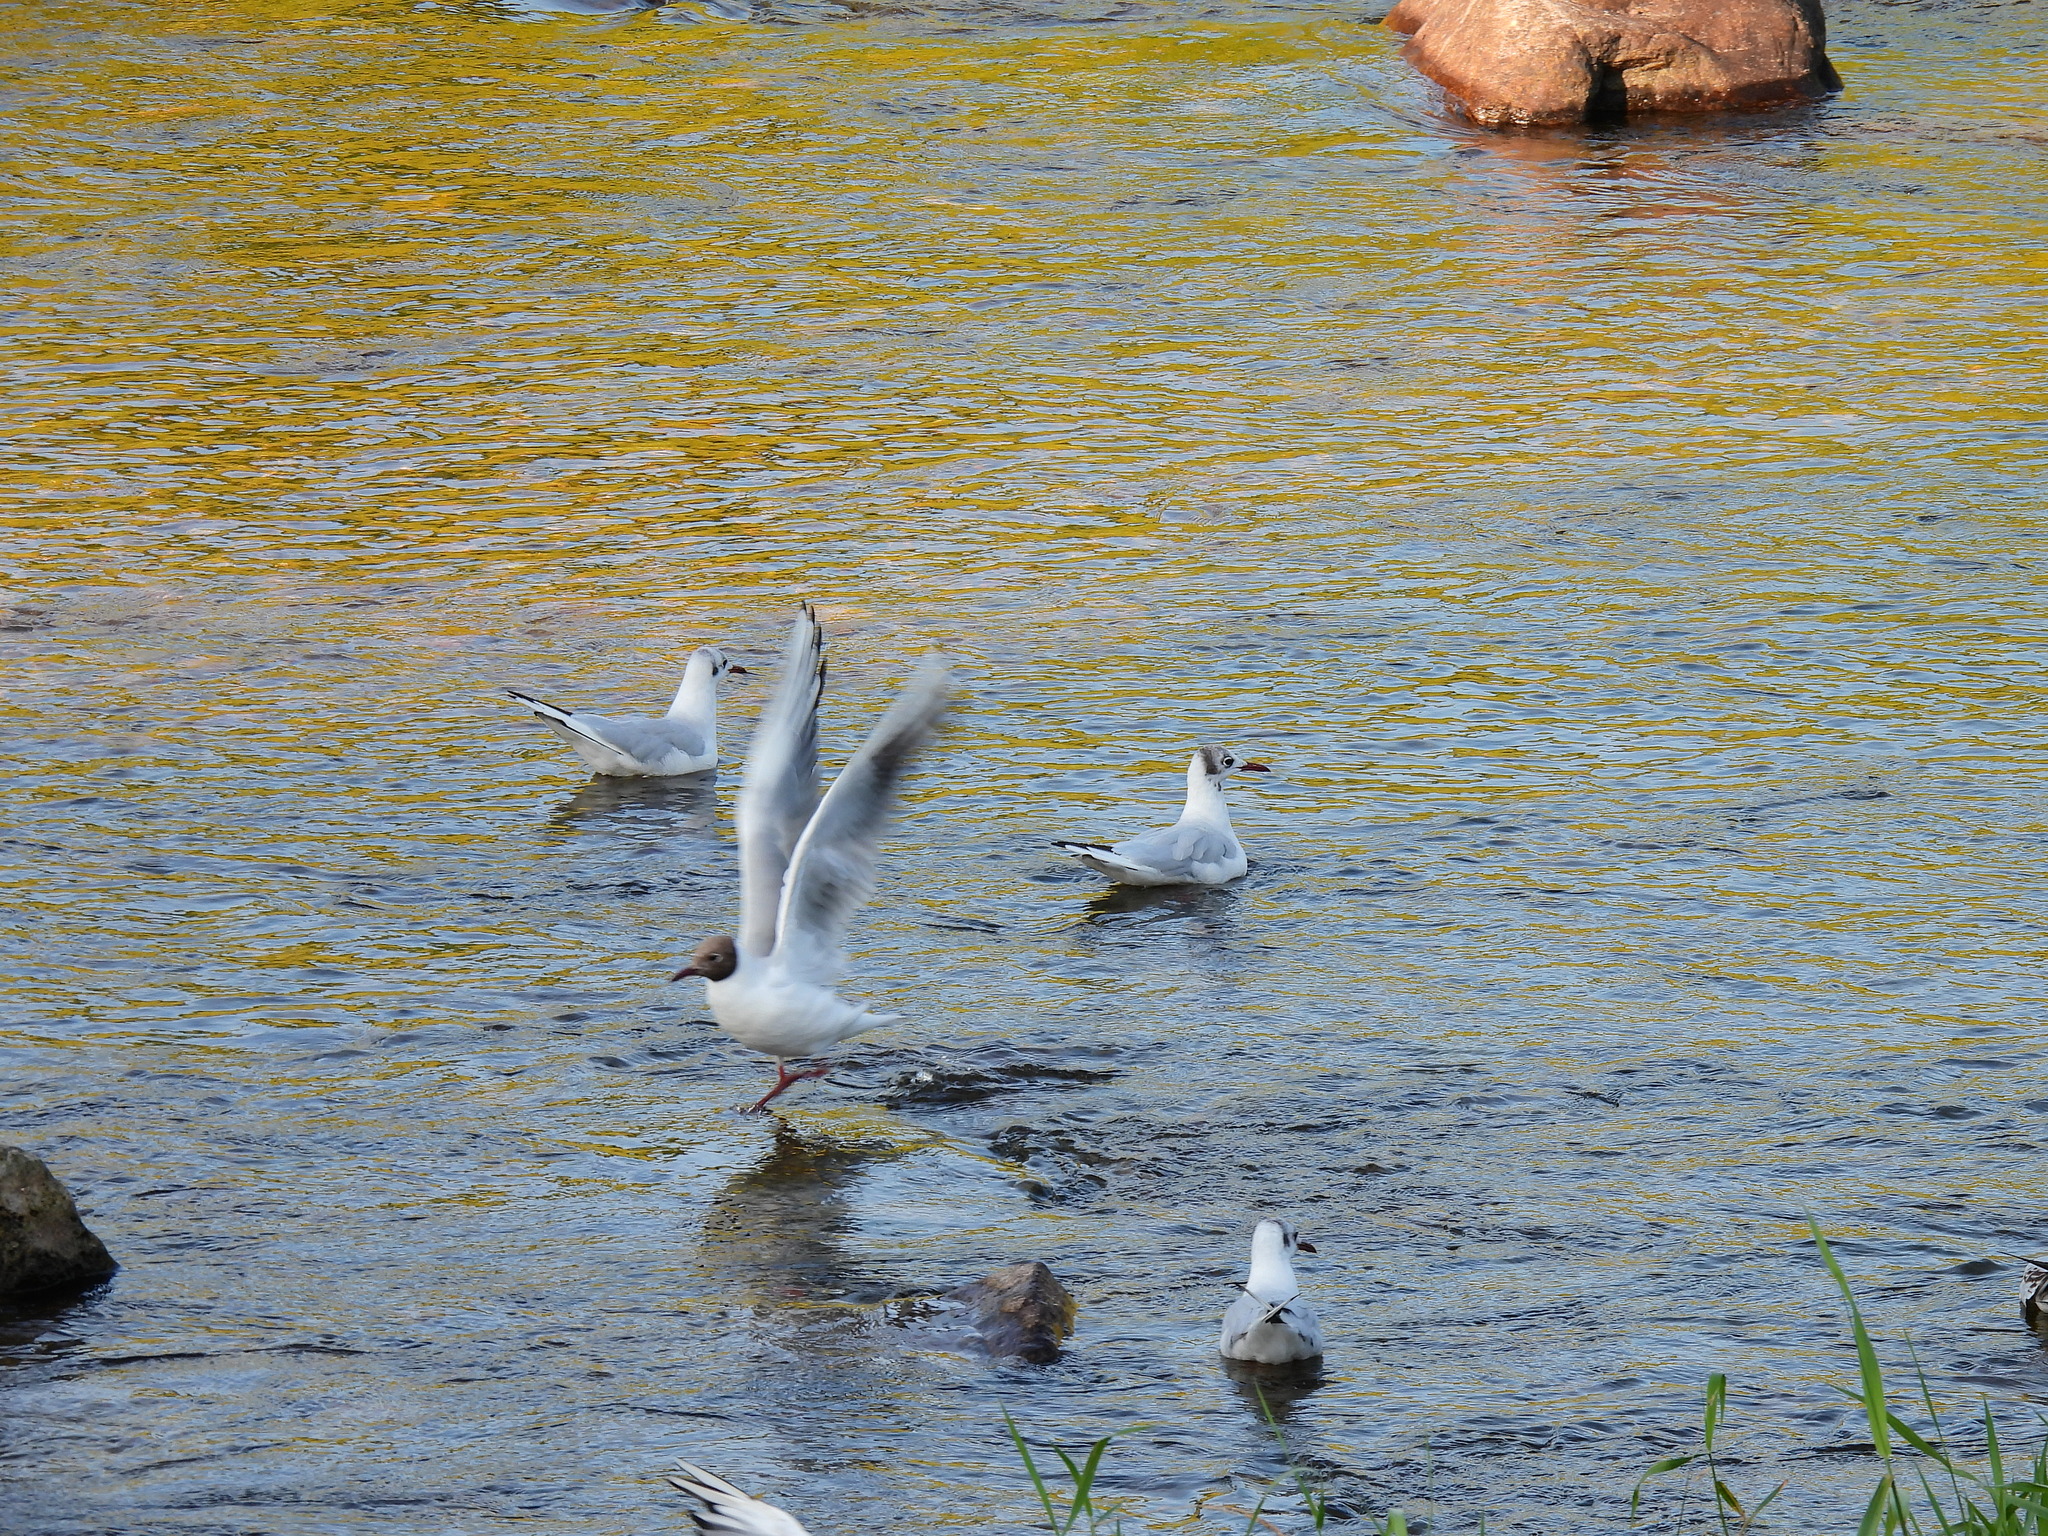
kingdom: Animalia
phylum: Chordata
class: Aves
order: Charadriiformes
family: Laridae
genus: Chroicocephalus
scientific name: Chroicocephalus ridibundus
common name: Black-headed gull
